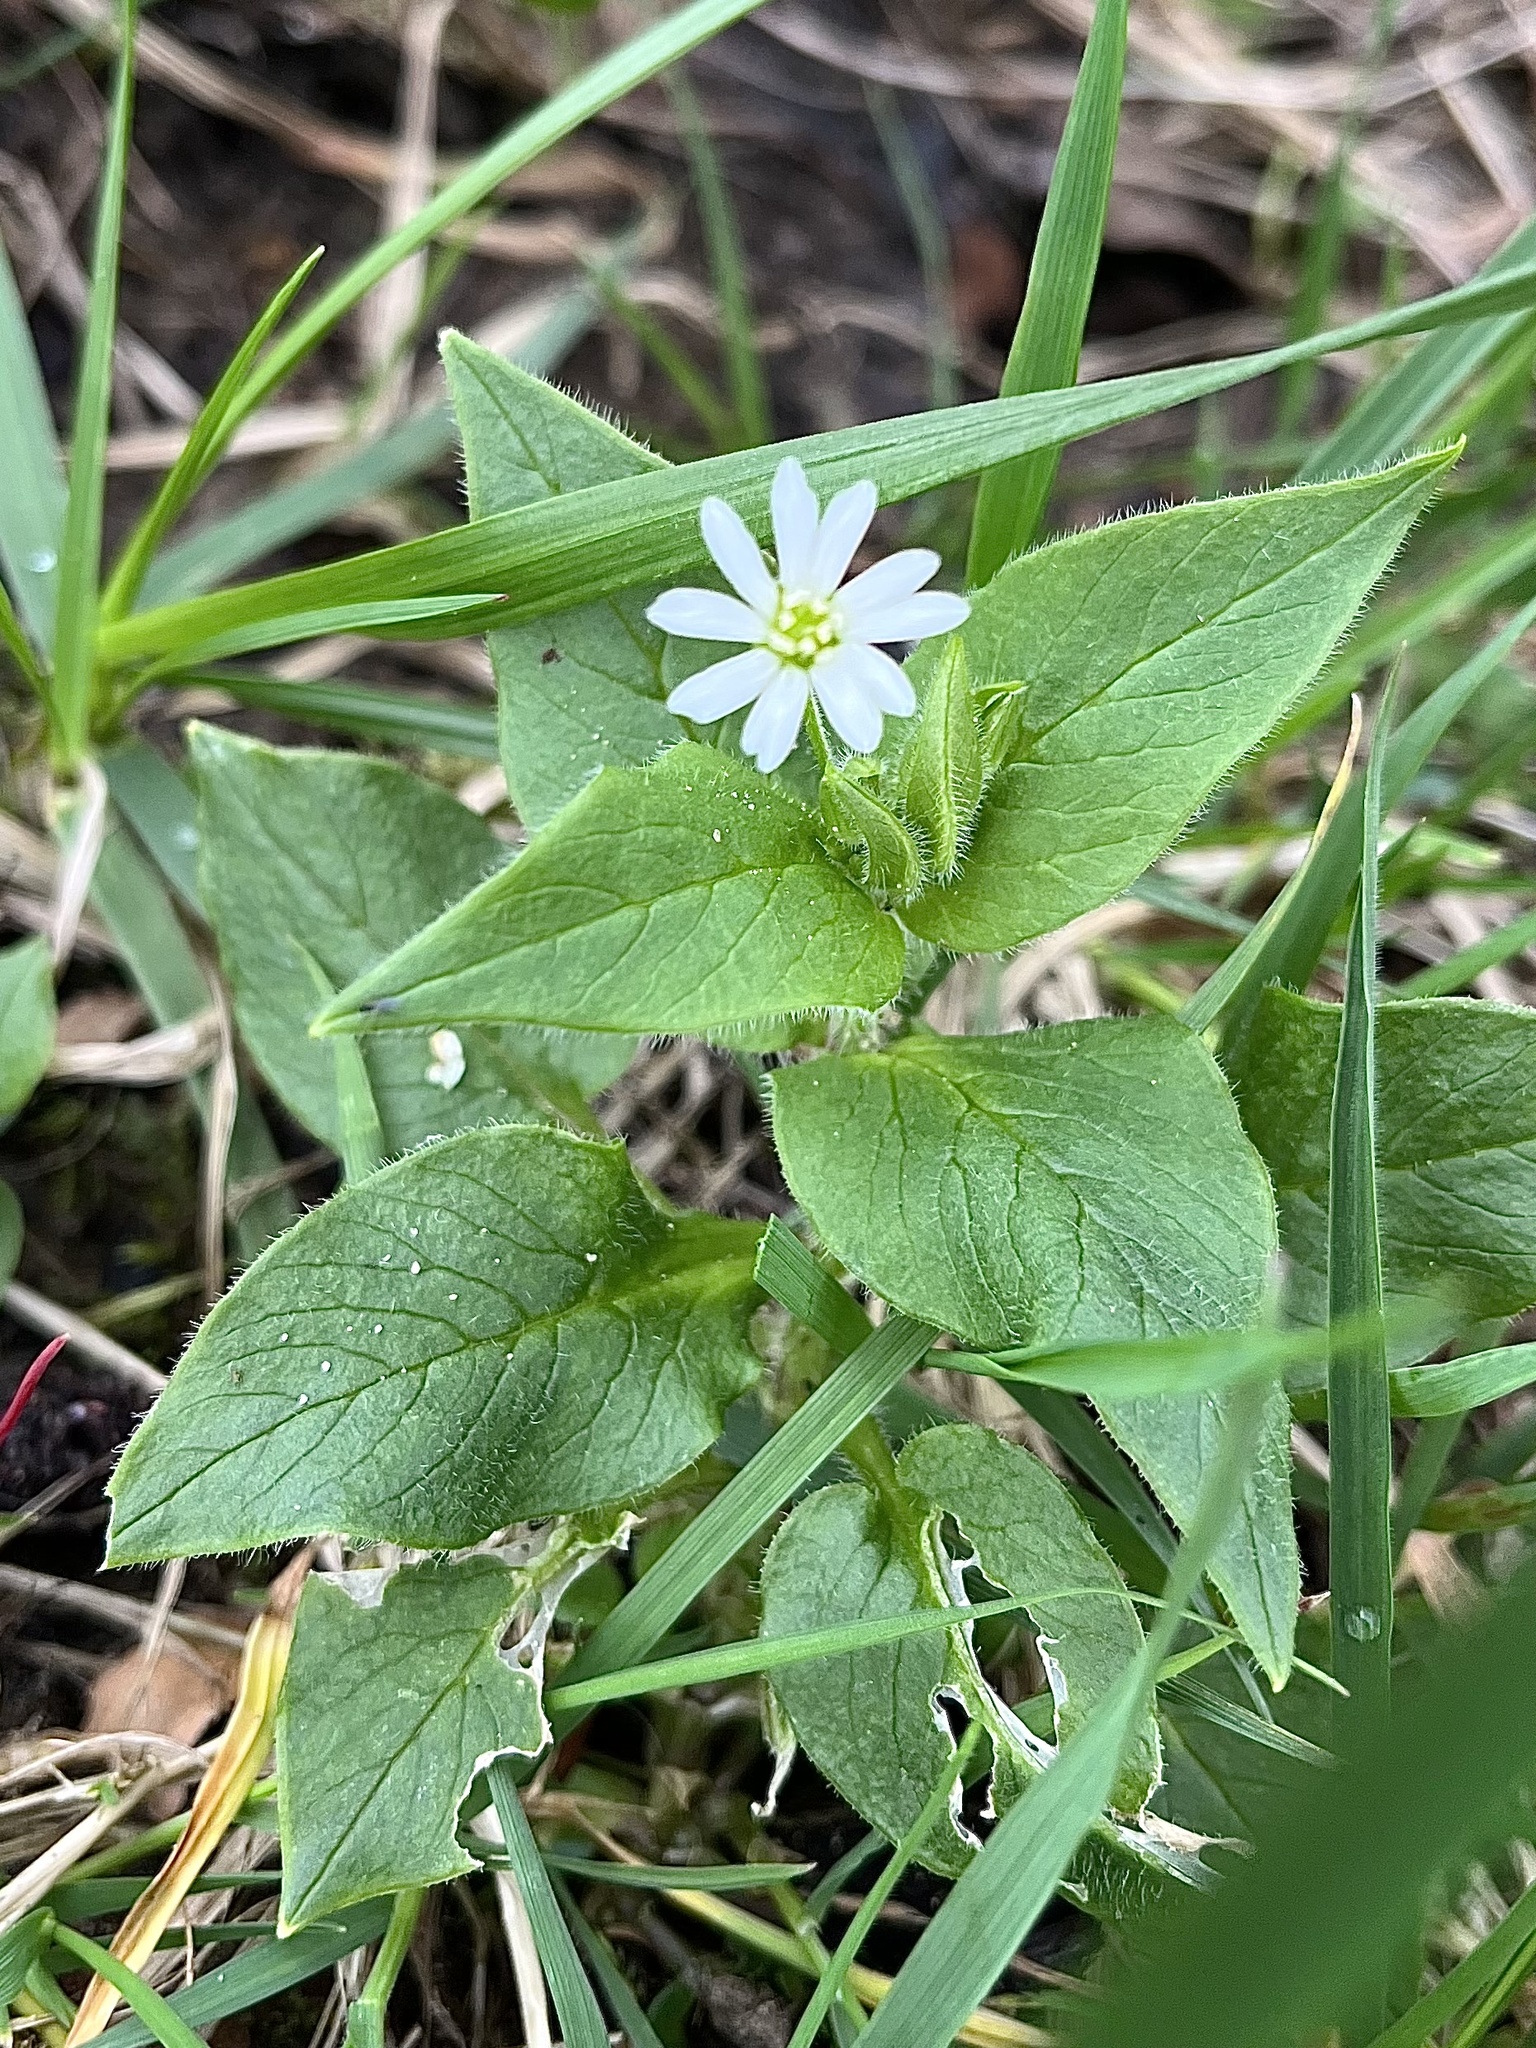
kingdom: Plantae
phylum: Tracheophyta
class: Magnoliopsida
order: Caryophyllales
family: Caryophyllaceae
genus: Stellaria
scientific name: Stellaria nemorum
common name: Wood stitchwort
